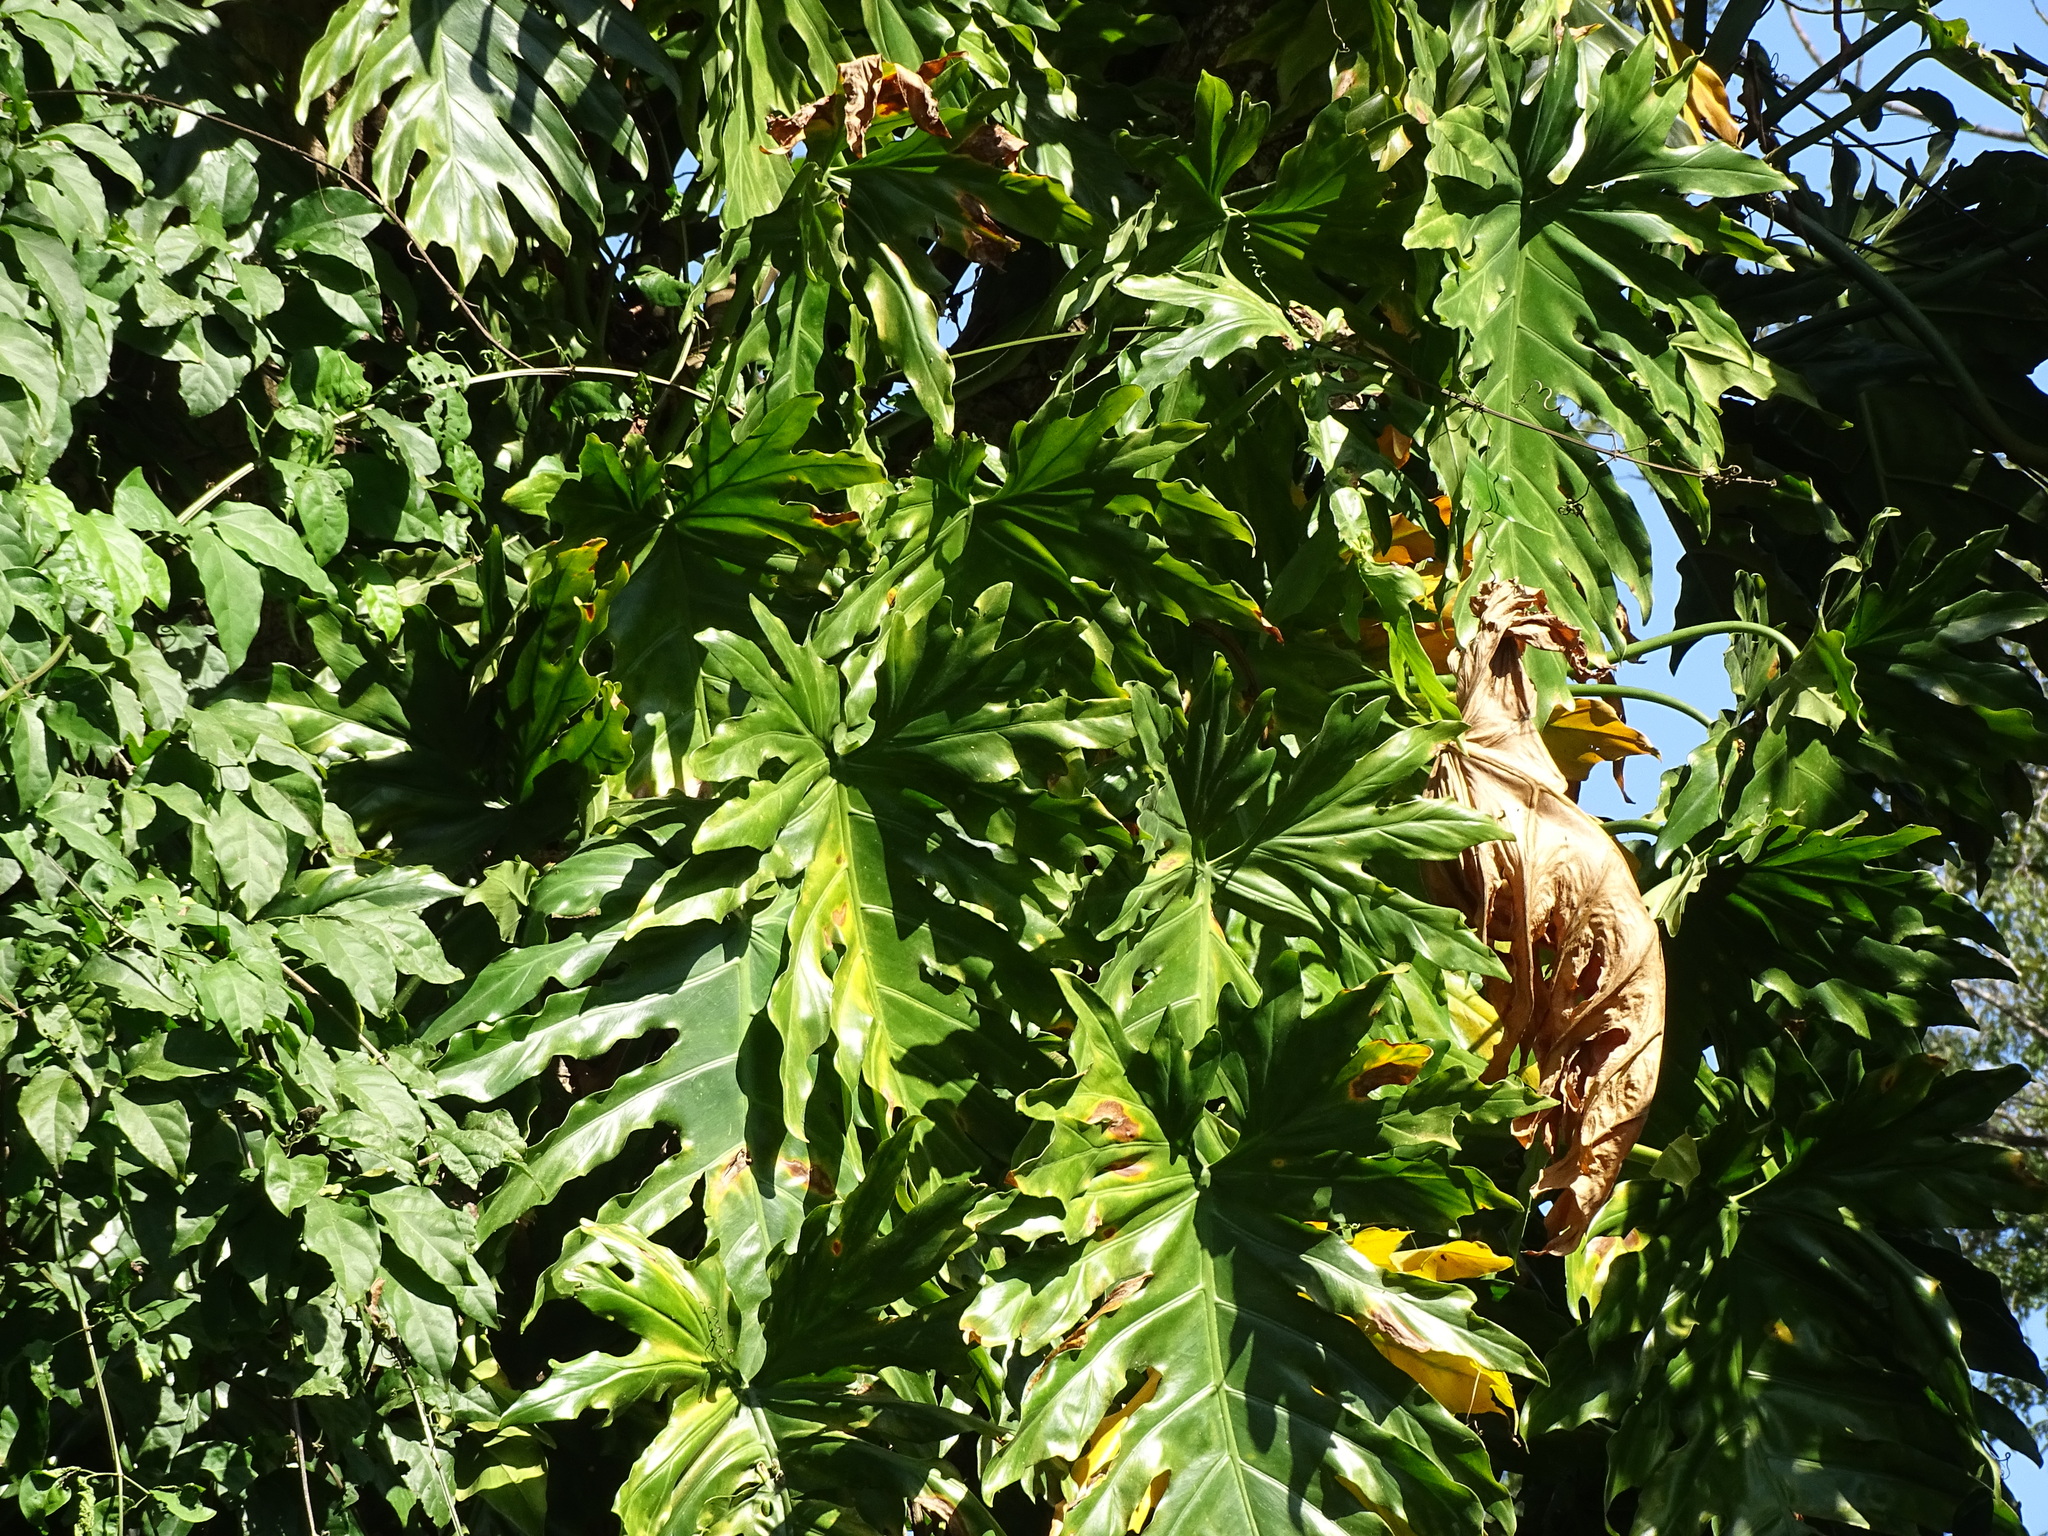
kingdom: Plantae
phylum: Tracheophyta
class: Liliopsida
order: Alismatales
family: Araceae
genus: Philodendron
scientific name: Philodendron radiatum
